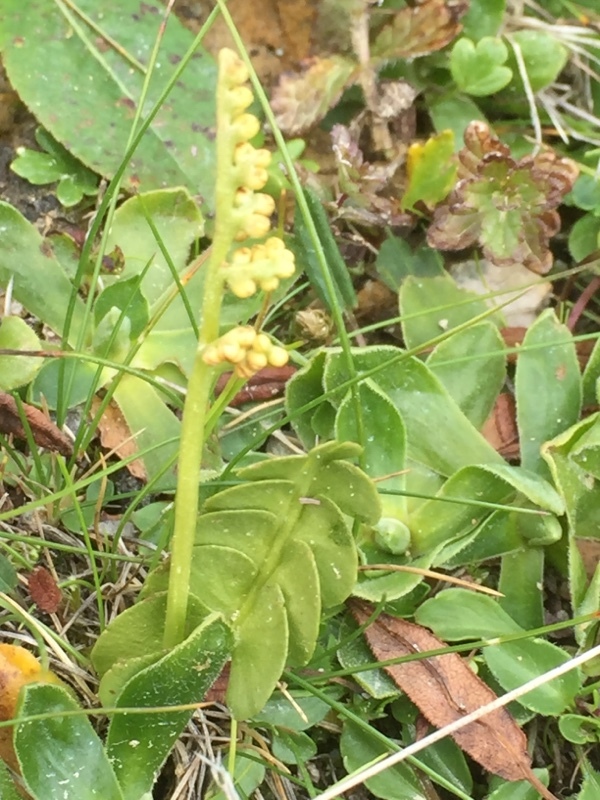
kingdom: Plantae
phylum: Tracheophyta
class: Polypodiopsida
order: Ophioglossales
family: Ophioglossaceae
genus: Botrychium
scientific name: Botrychium lunaria
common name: Moonwort
